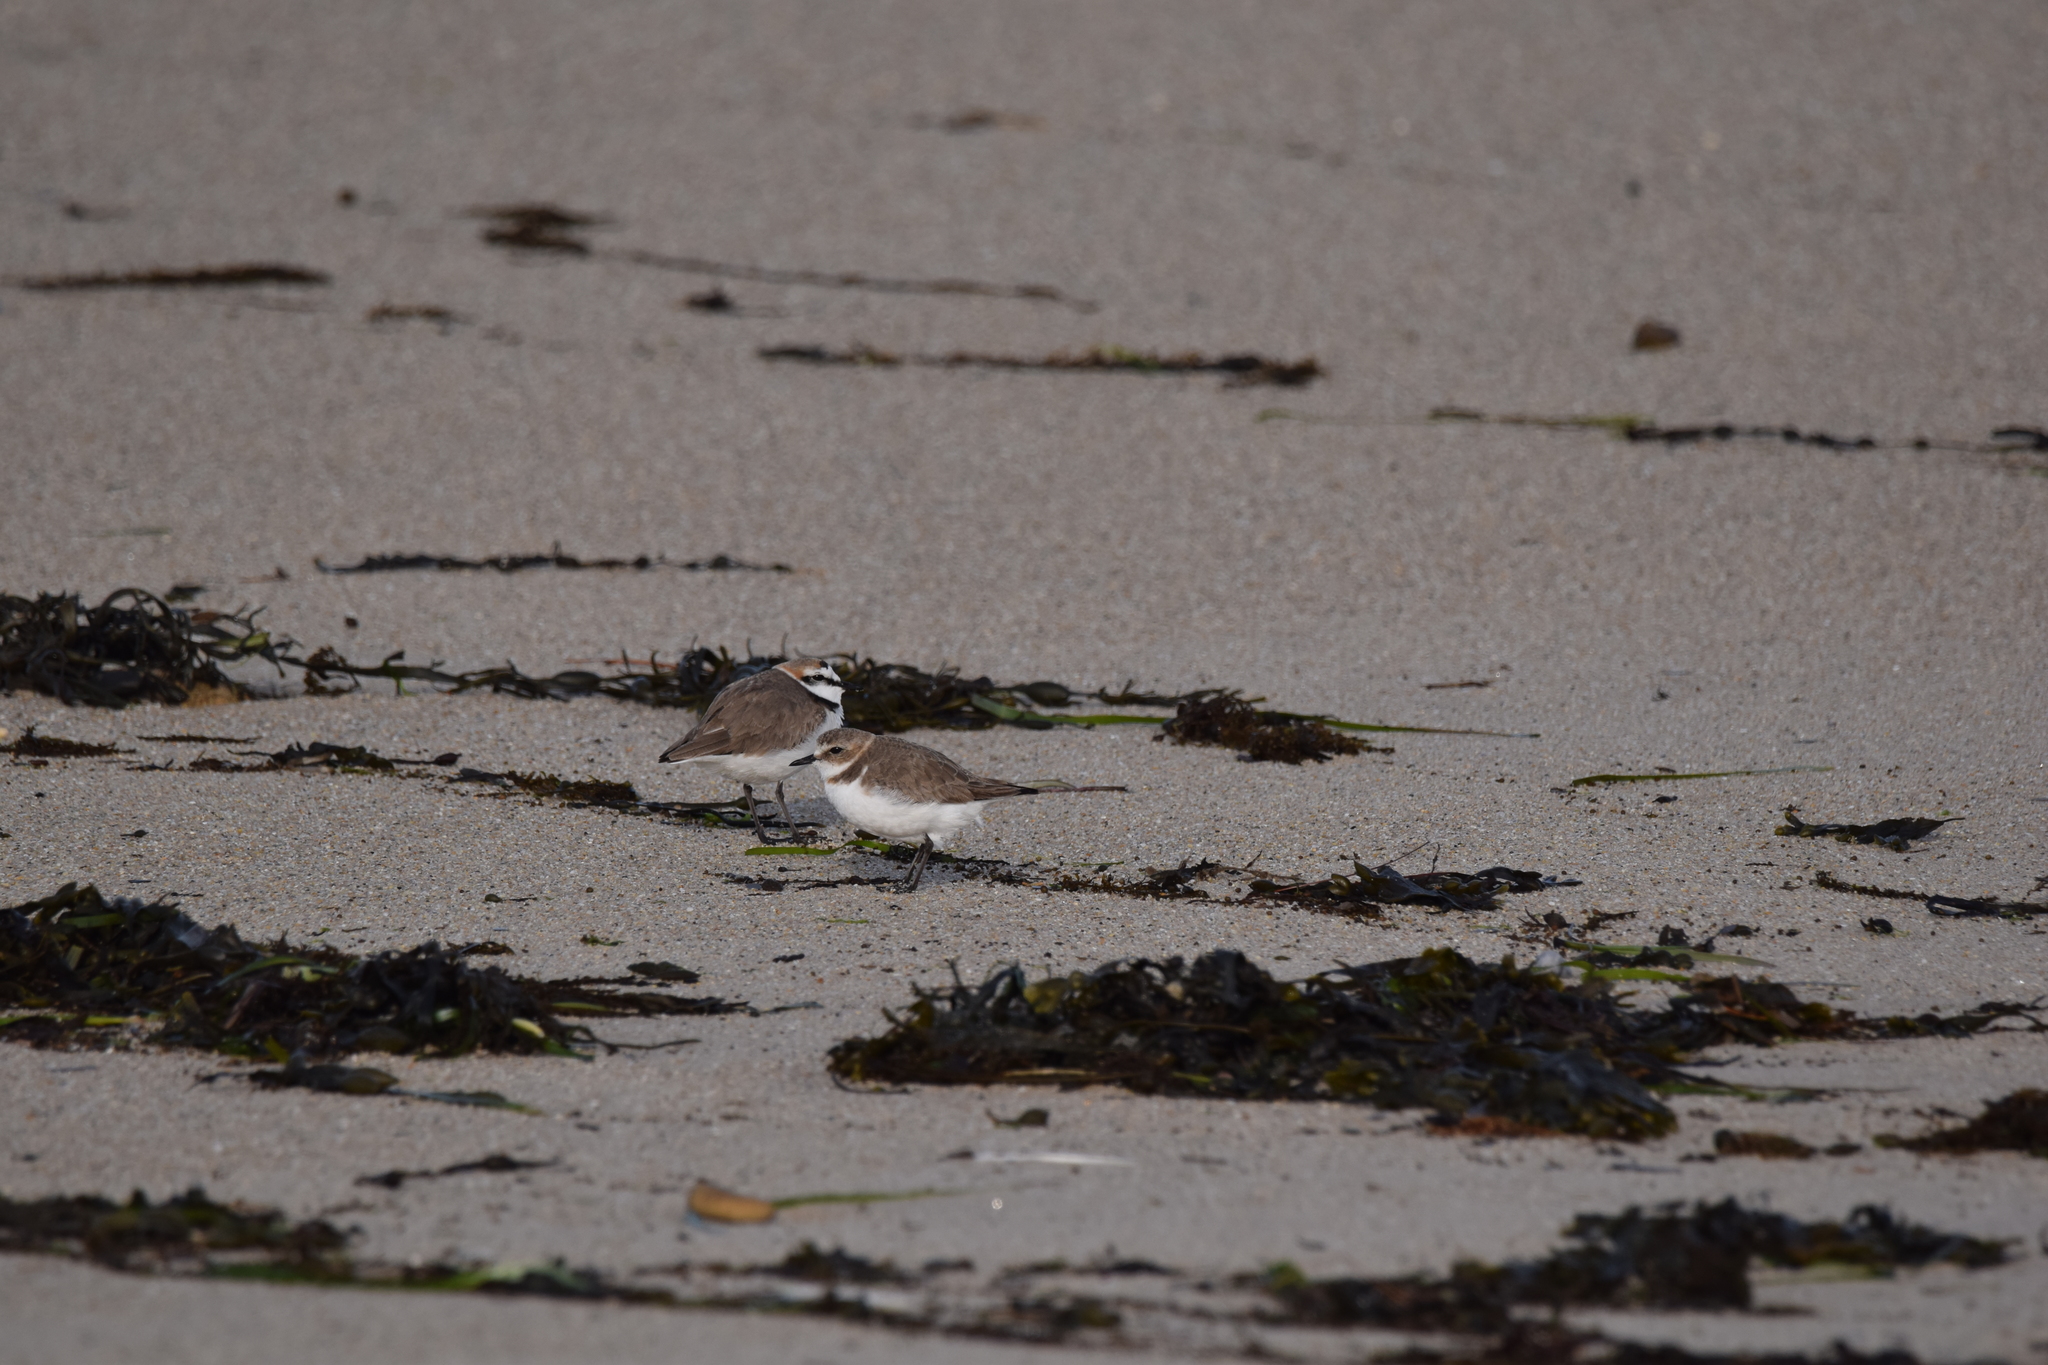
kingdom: Animalia
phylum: Chordata
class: Aves
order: Charadriiformes
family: Charadriidae
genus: Charadrius
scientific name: Charadrius alexandrinus
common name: Kentish plover
